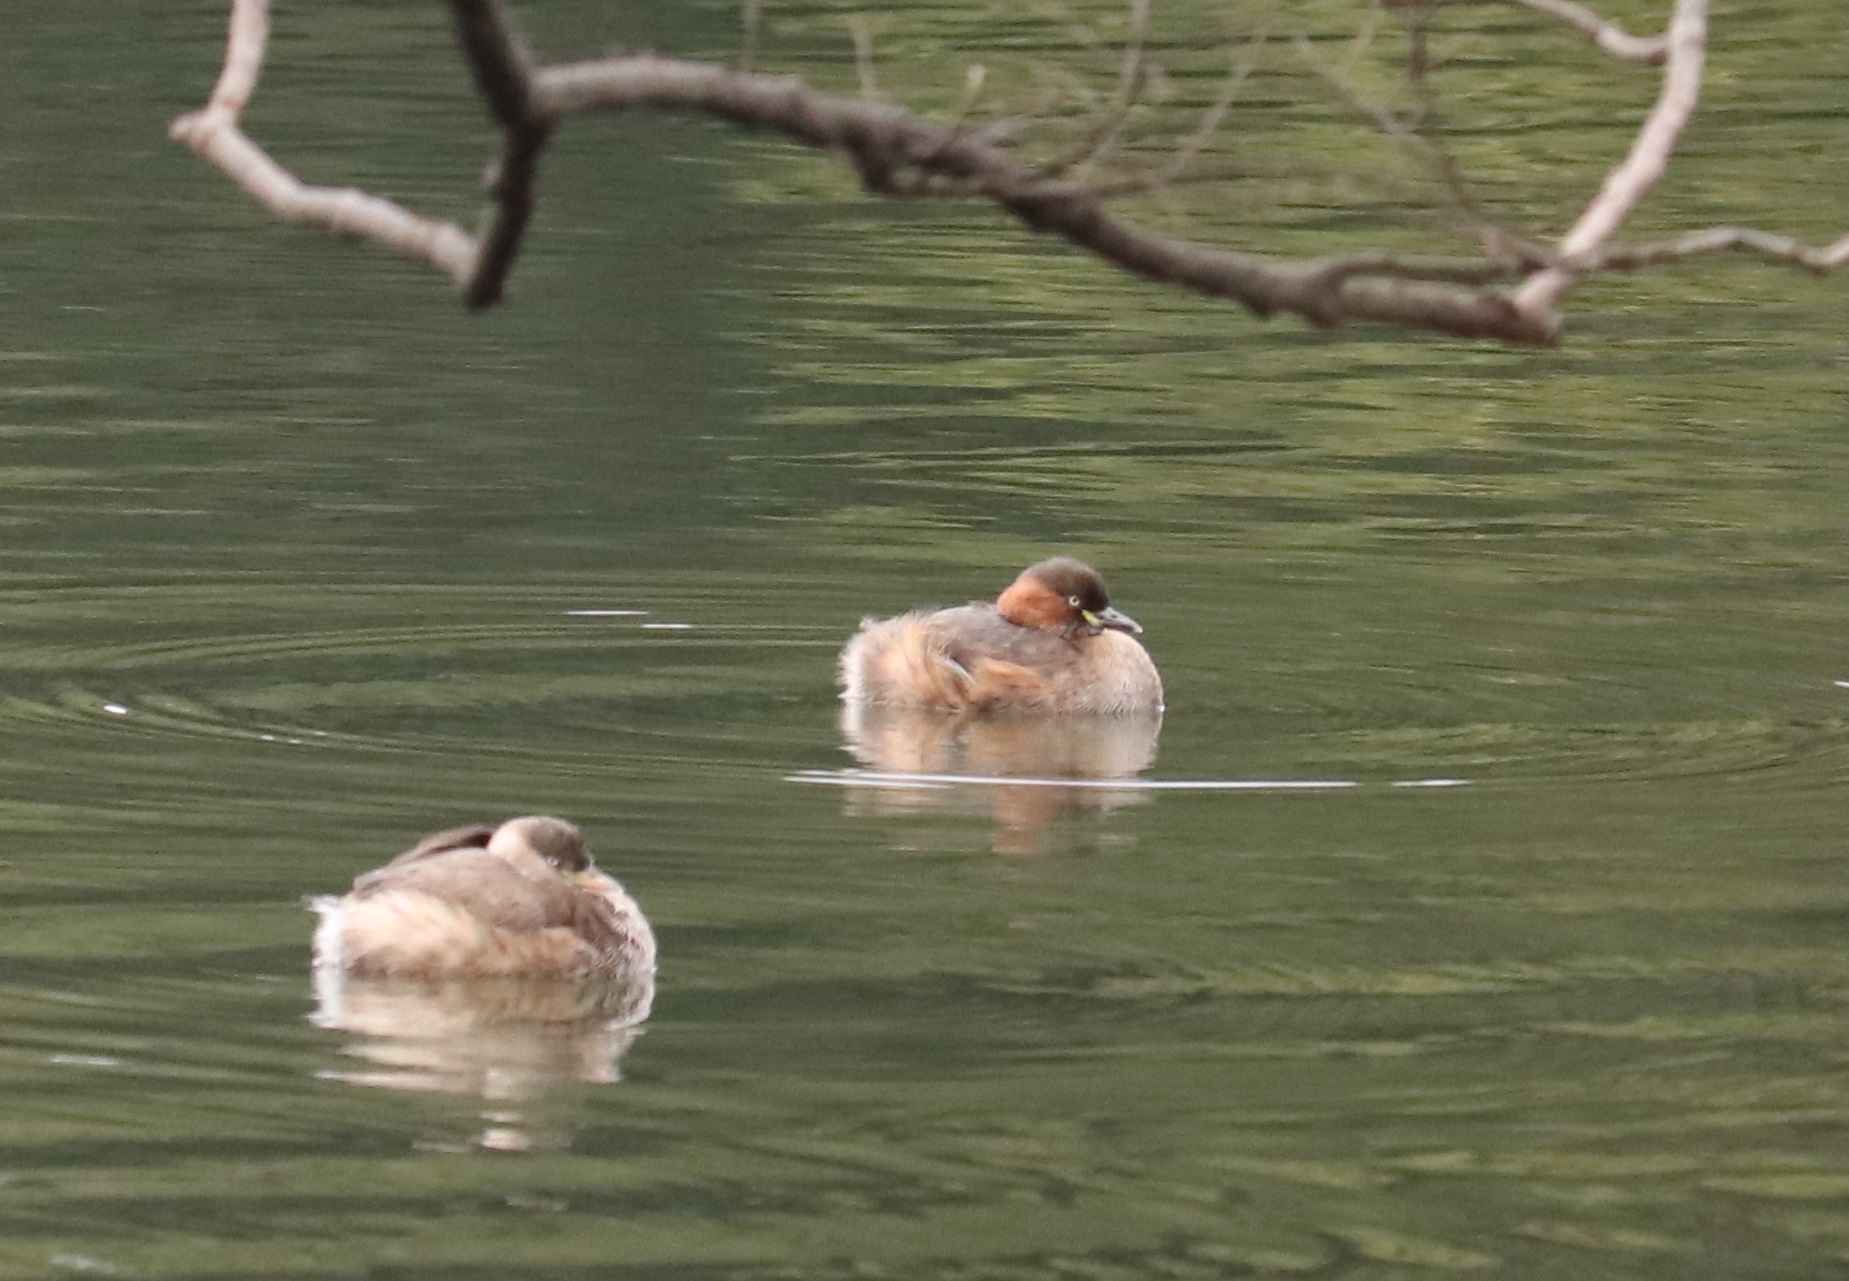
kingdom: Animalia
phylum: Chordata
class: Aves
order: Podicipediformes
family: Podicipedidae
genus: Tachybaptus
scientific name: Tachybaptus ruficollis
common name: Little grebe
